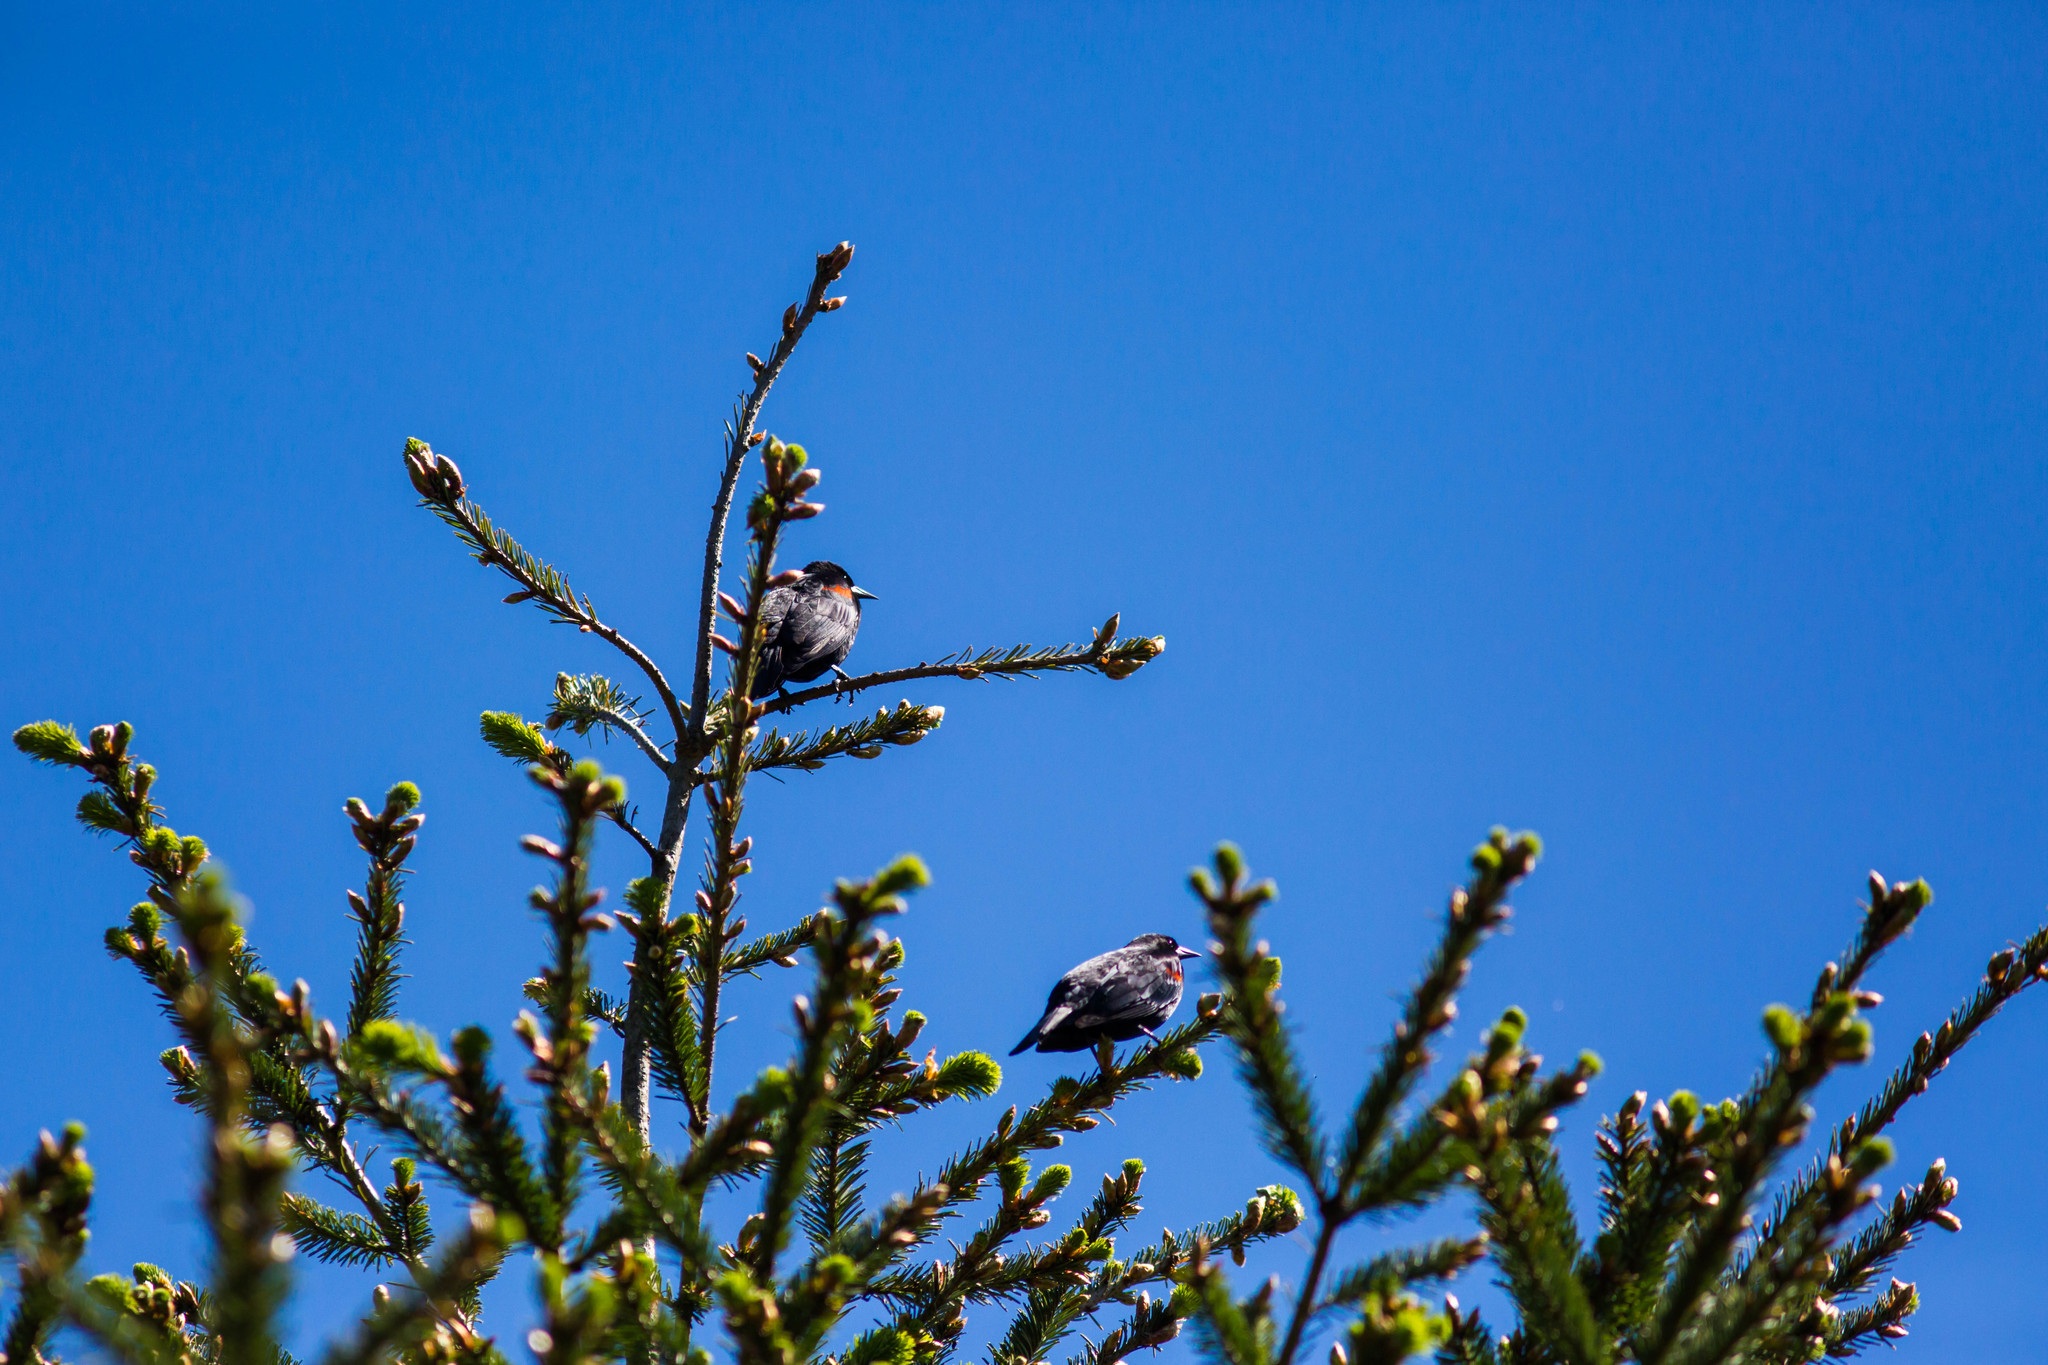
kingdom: Animalia
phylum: Chordata
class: Aves
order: Passeriformes
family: Icteridae
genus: Agelaius
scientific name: Agelaius phoeniceus
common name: Red-winged blackbird
